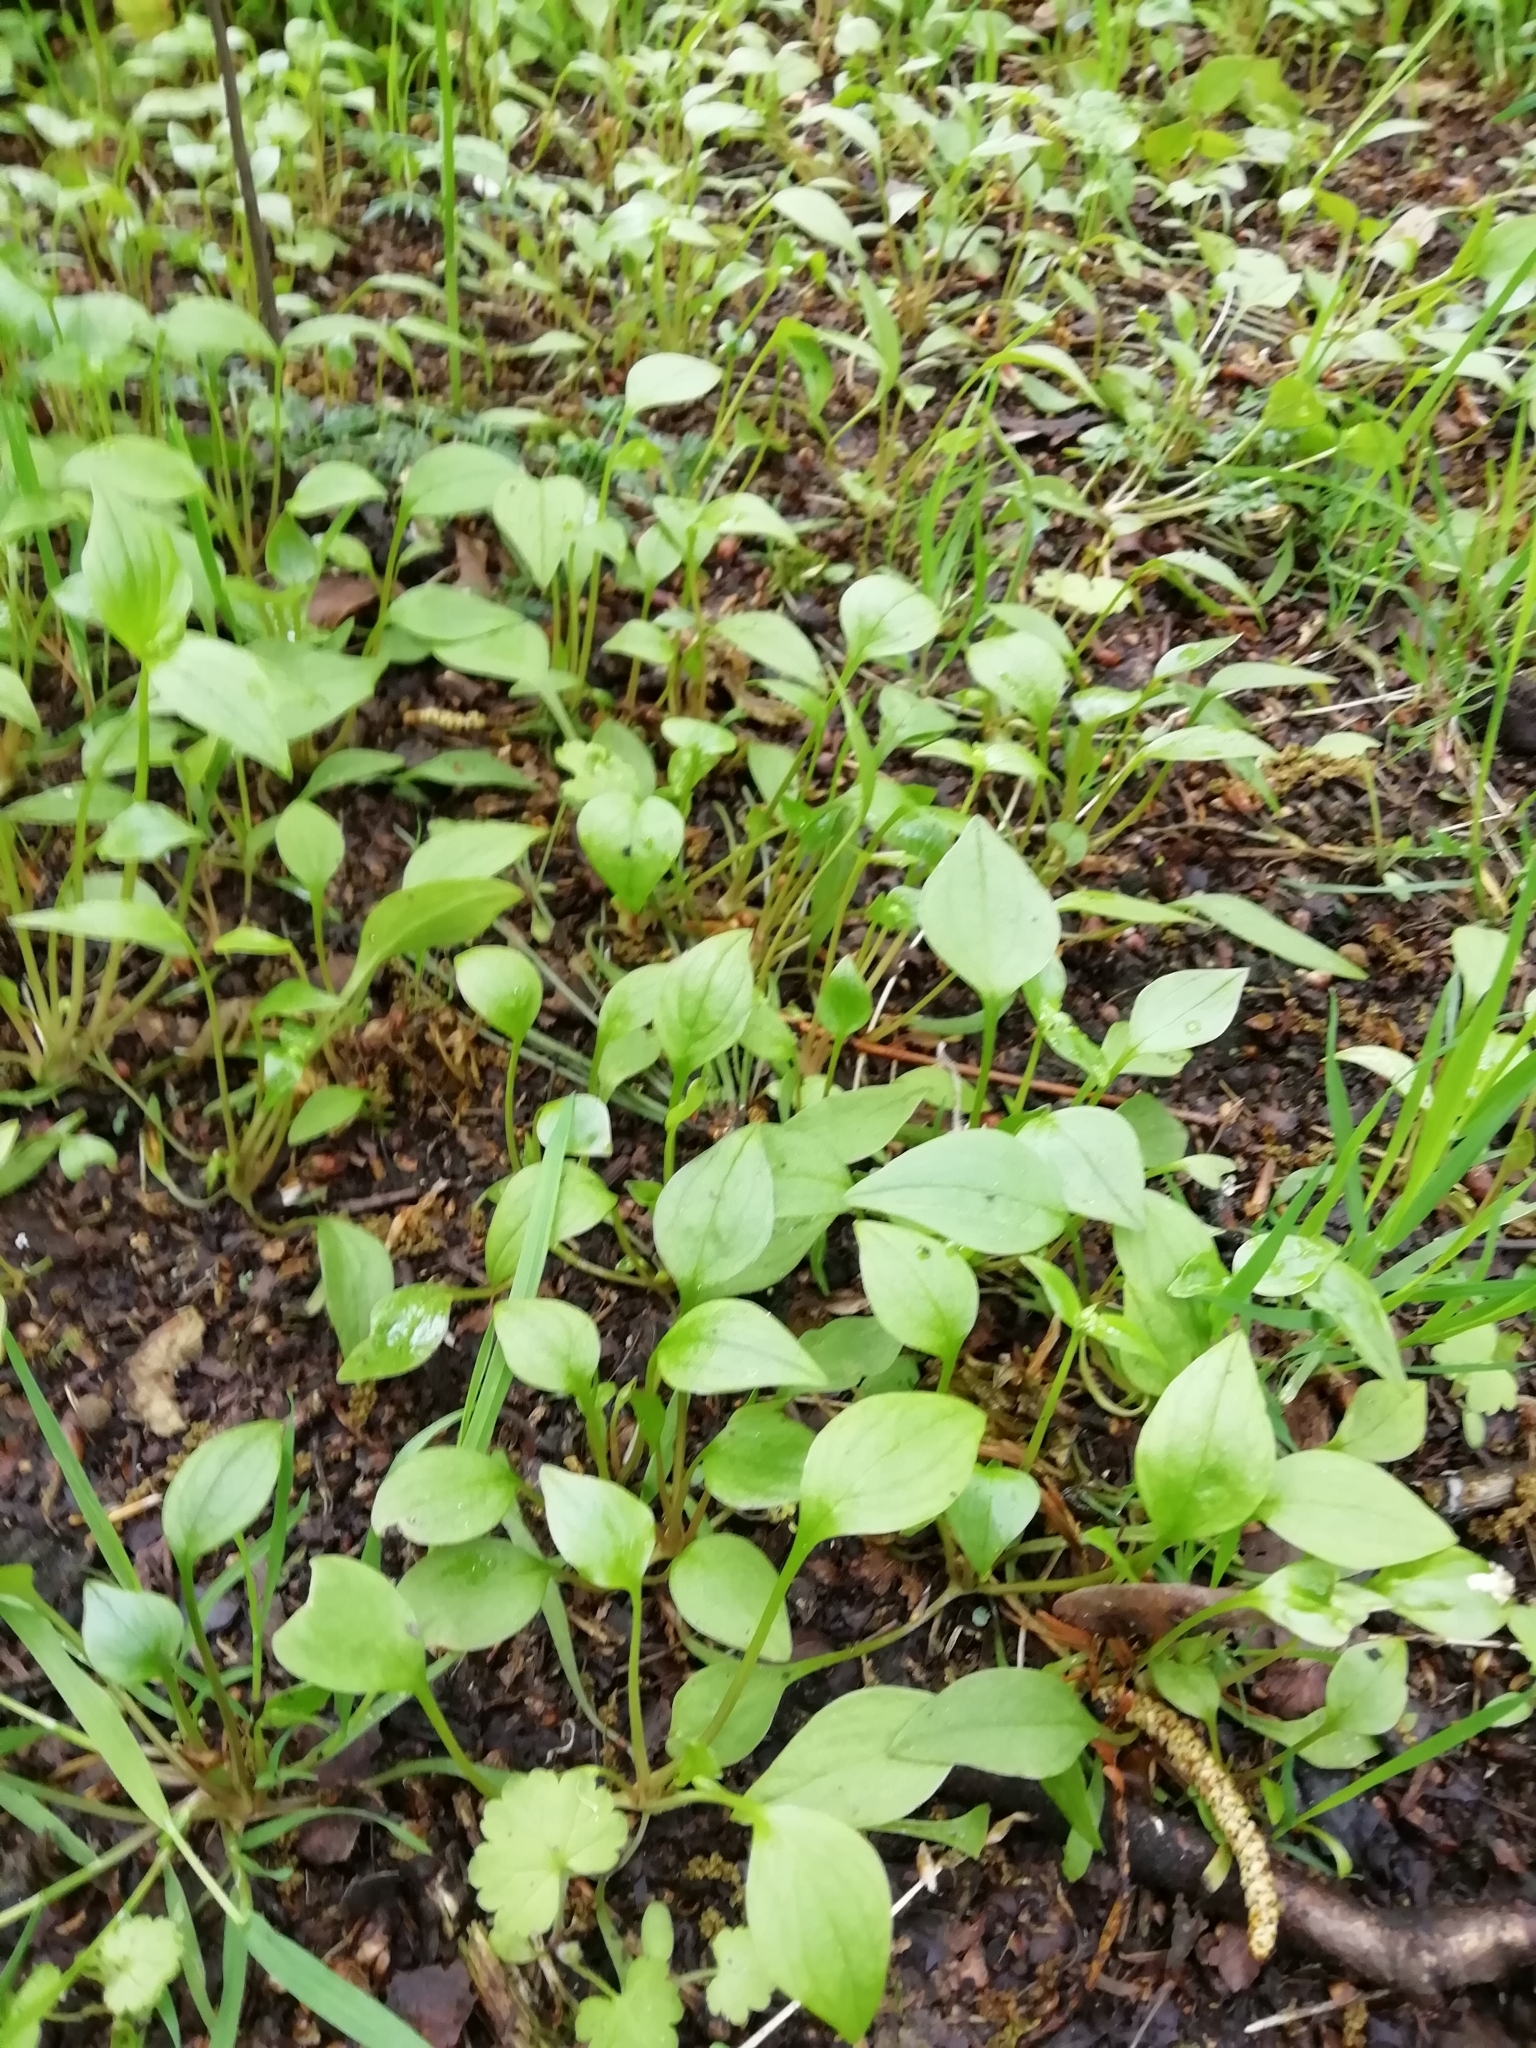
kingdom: Plantae
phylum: Tracheophyta
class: Magnoliopsida
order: Caryophyllales
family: Montiaceae
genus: Claytonia
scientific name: Claytonia sibirica
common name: Pink purslane
